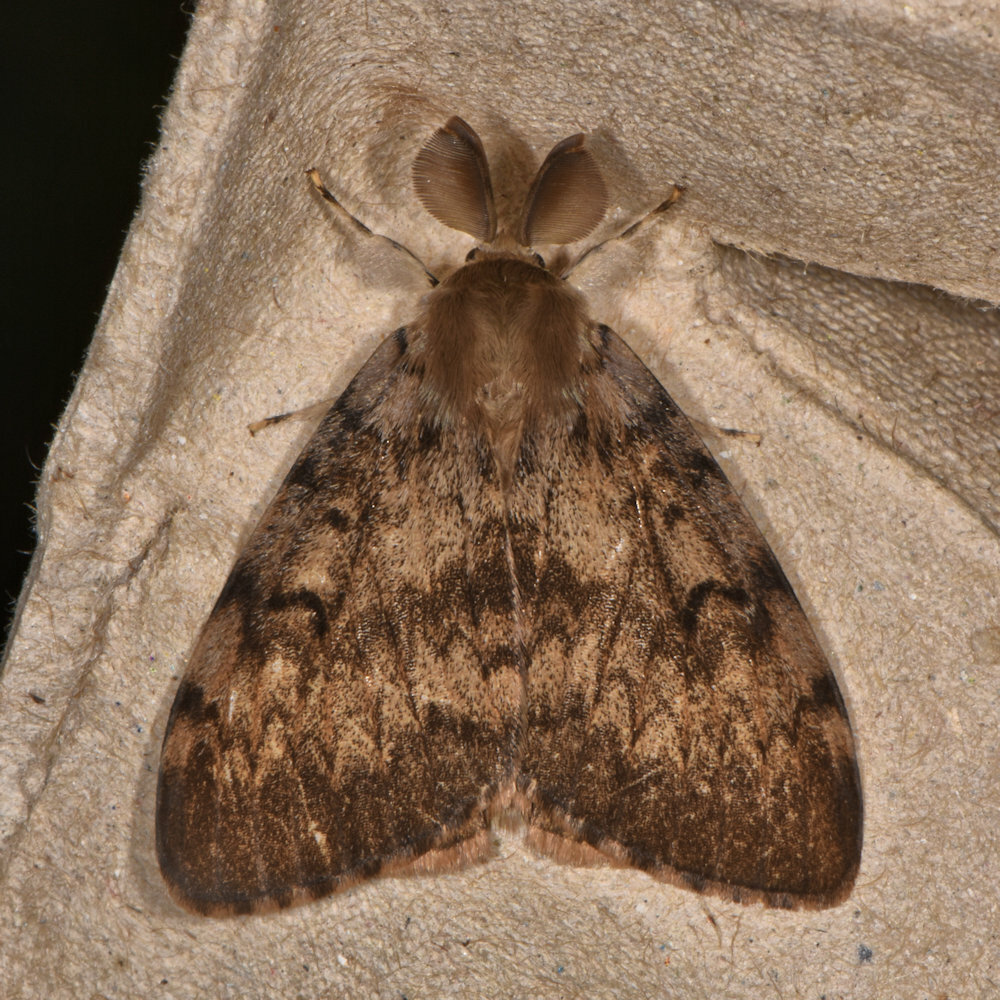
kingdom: Animalia
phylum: Arthropoda
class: Insecta
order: Lepidoptera
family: Erebidae
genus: Lymantria
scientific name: Lymantria dispar
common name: Gypsy moth
